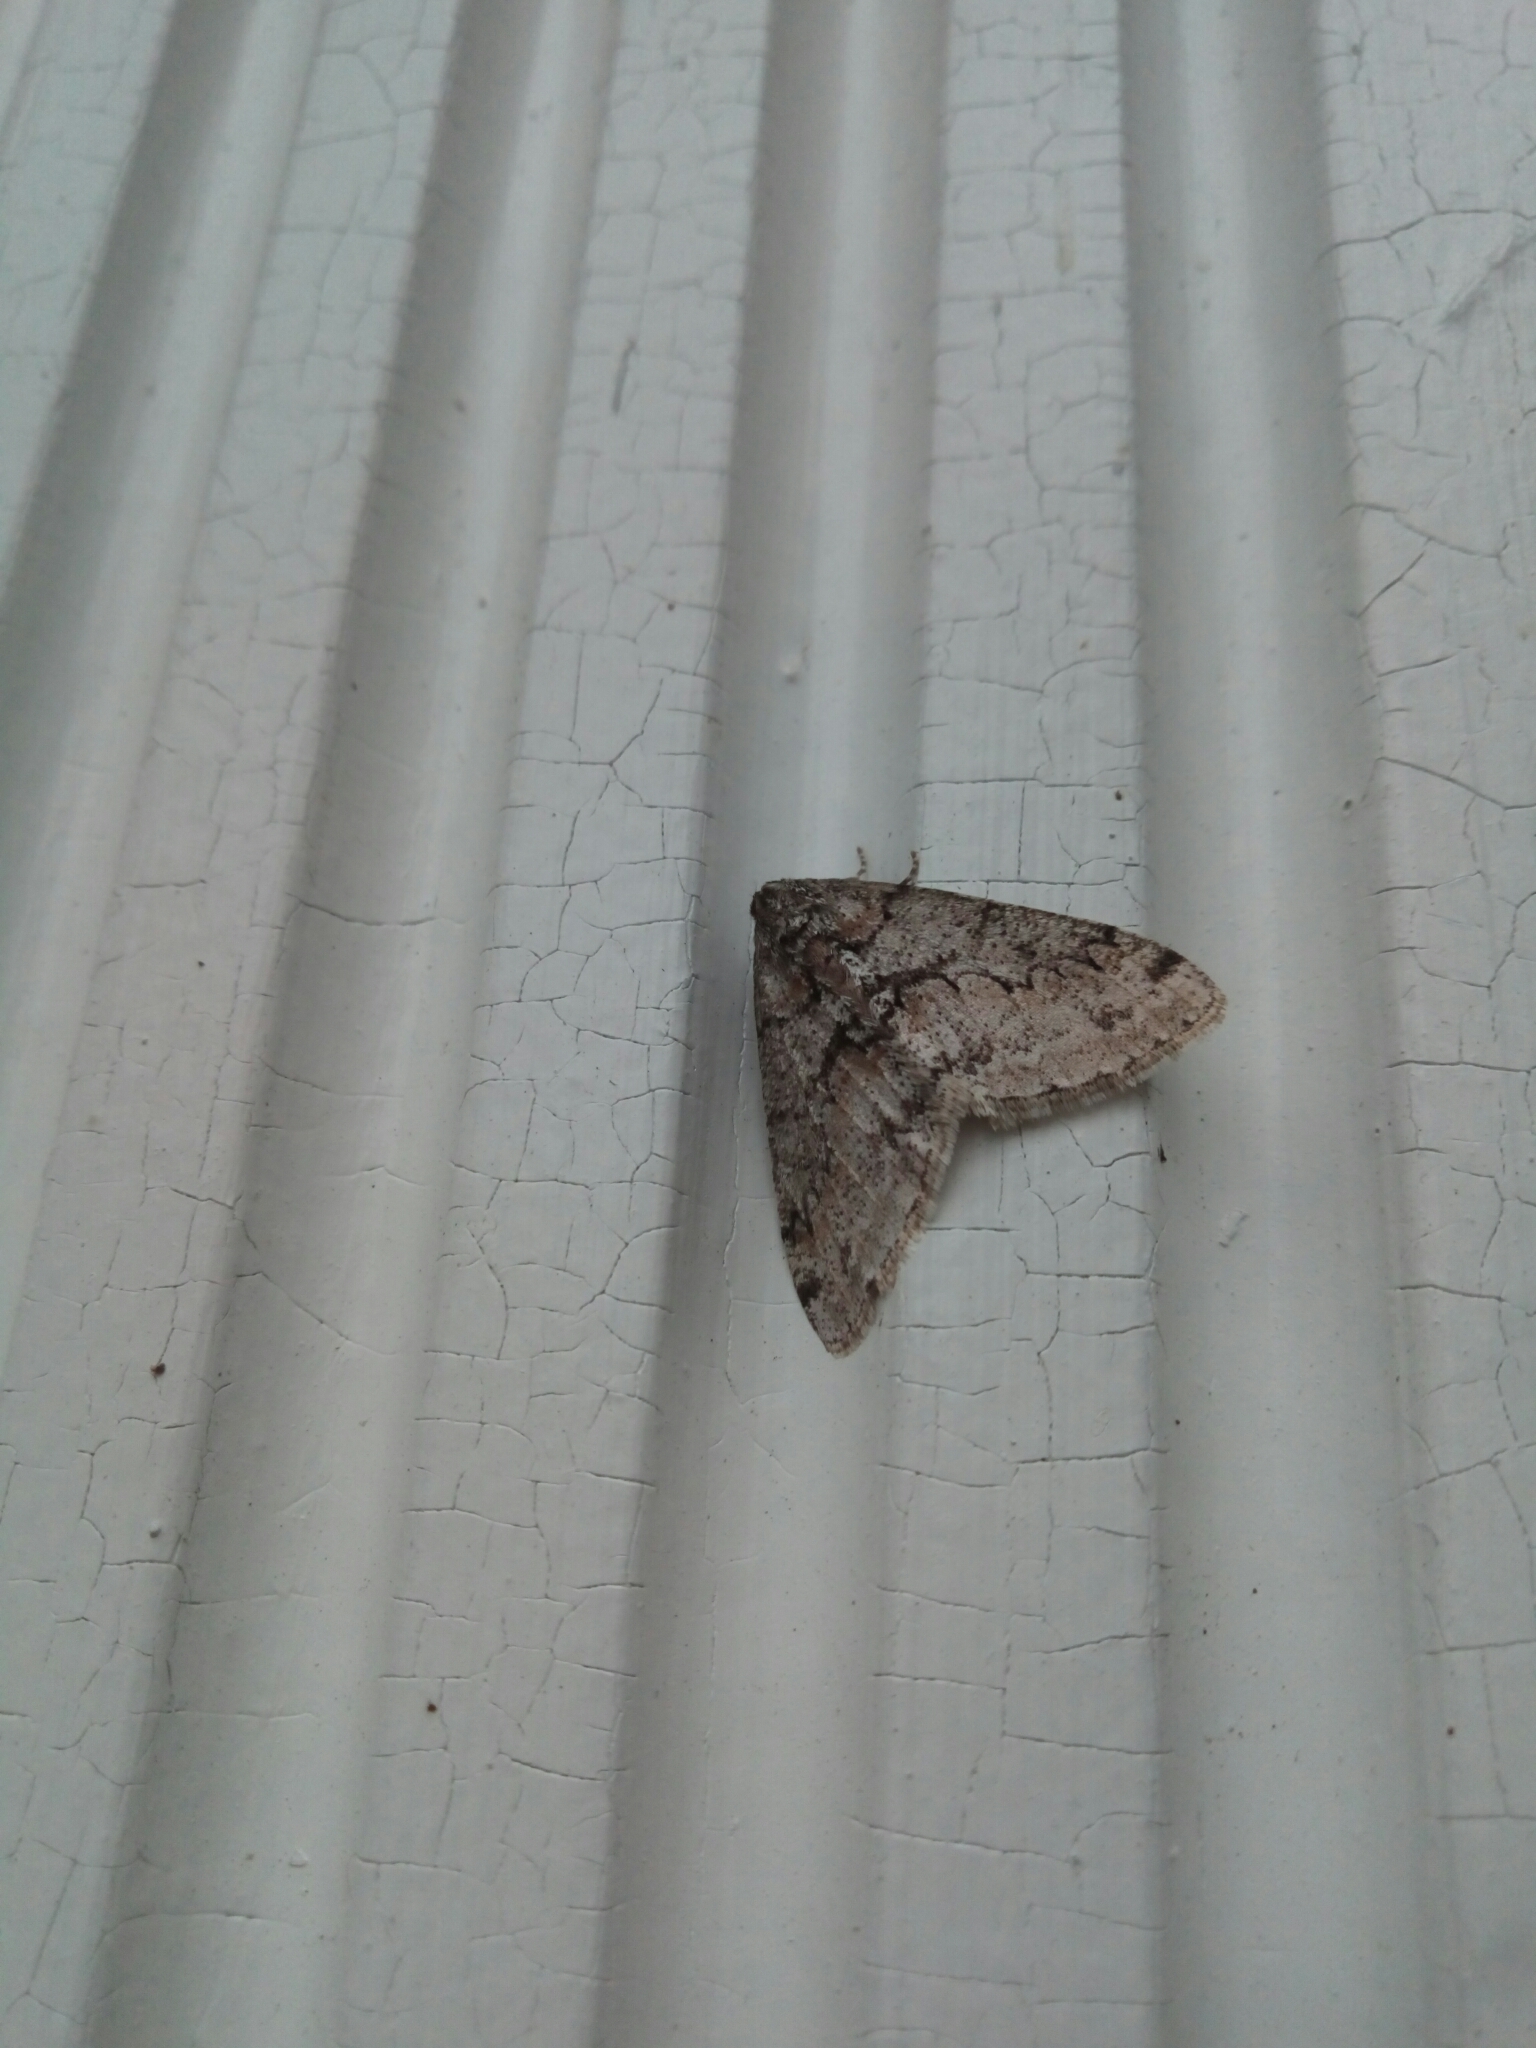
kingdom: Animalia
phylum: Arthropoda
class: Insecta
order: Lepidoptera
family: Geometridae
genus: Phigalia
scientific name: Phigalia denticulata
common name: Toothed phigalia
